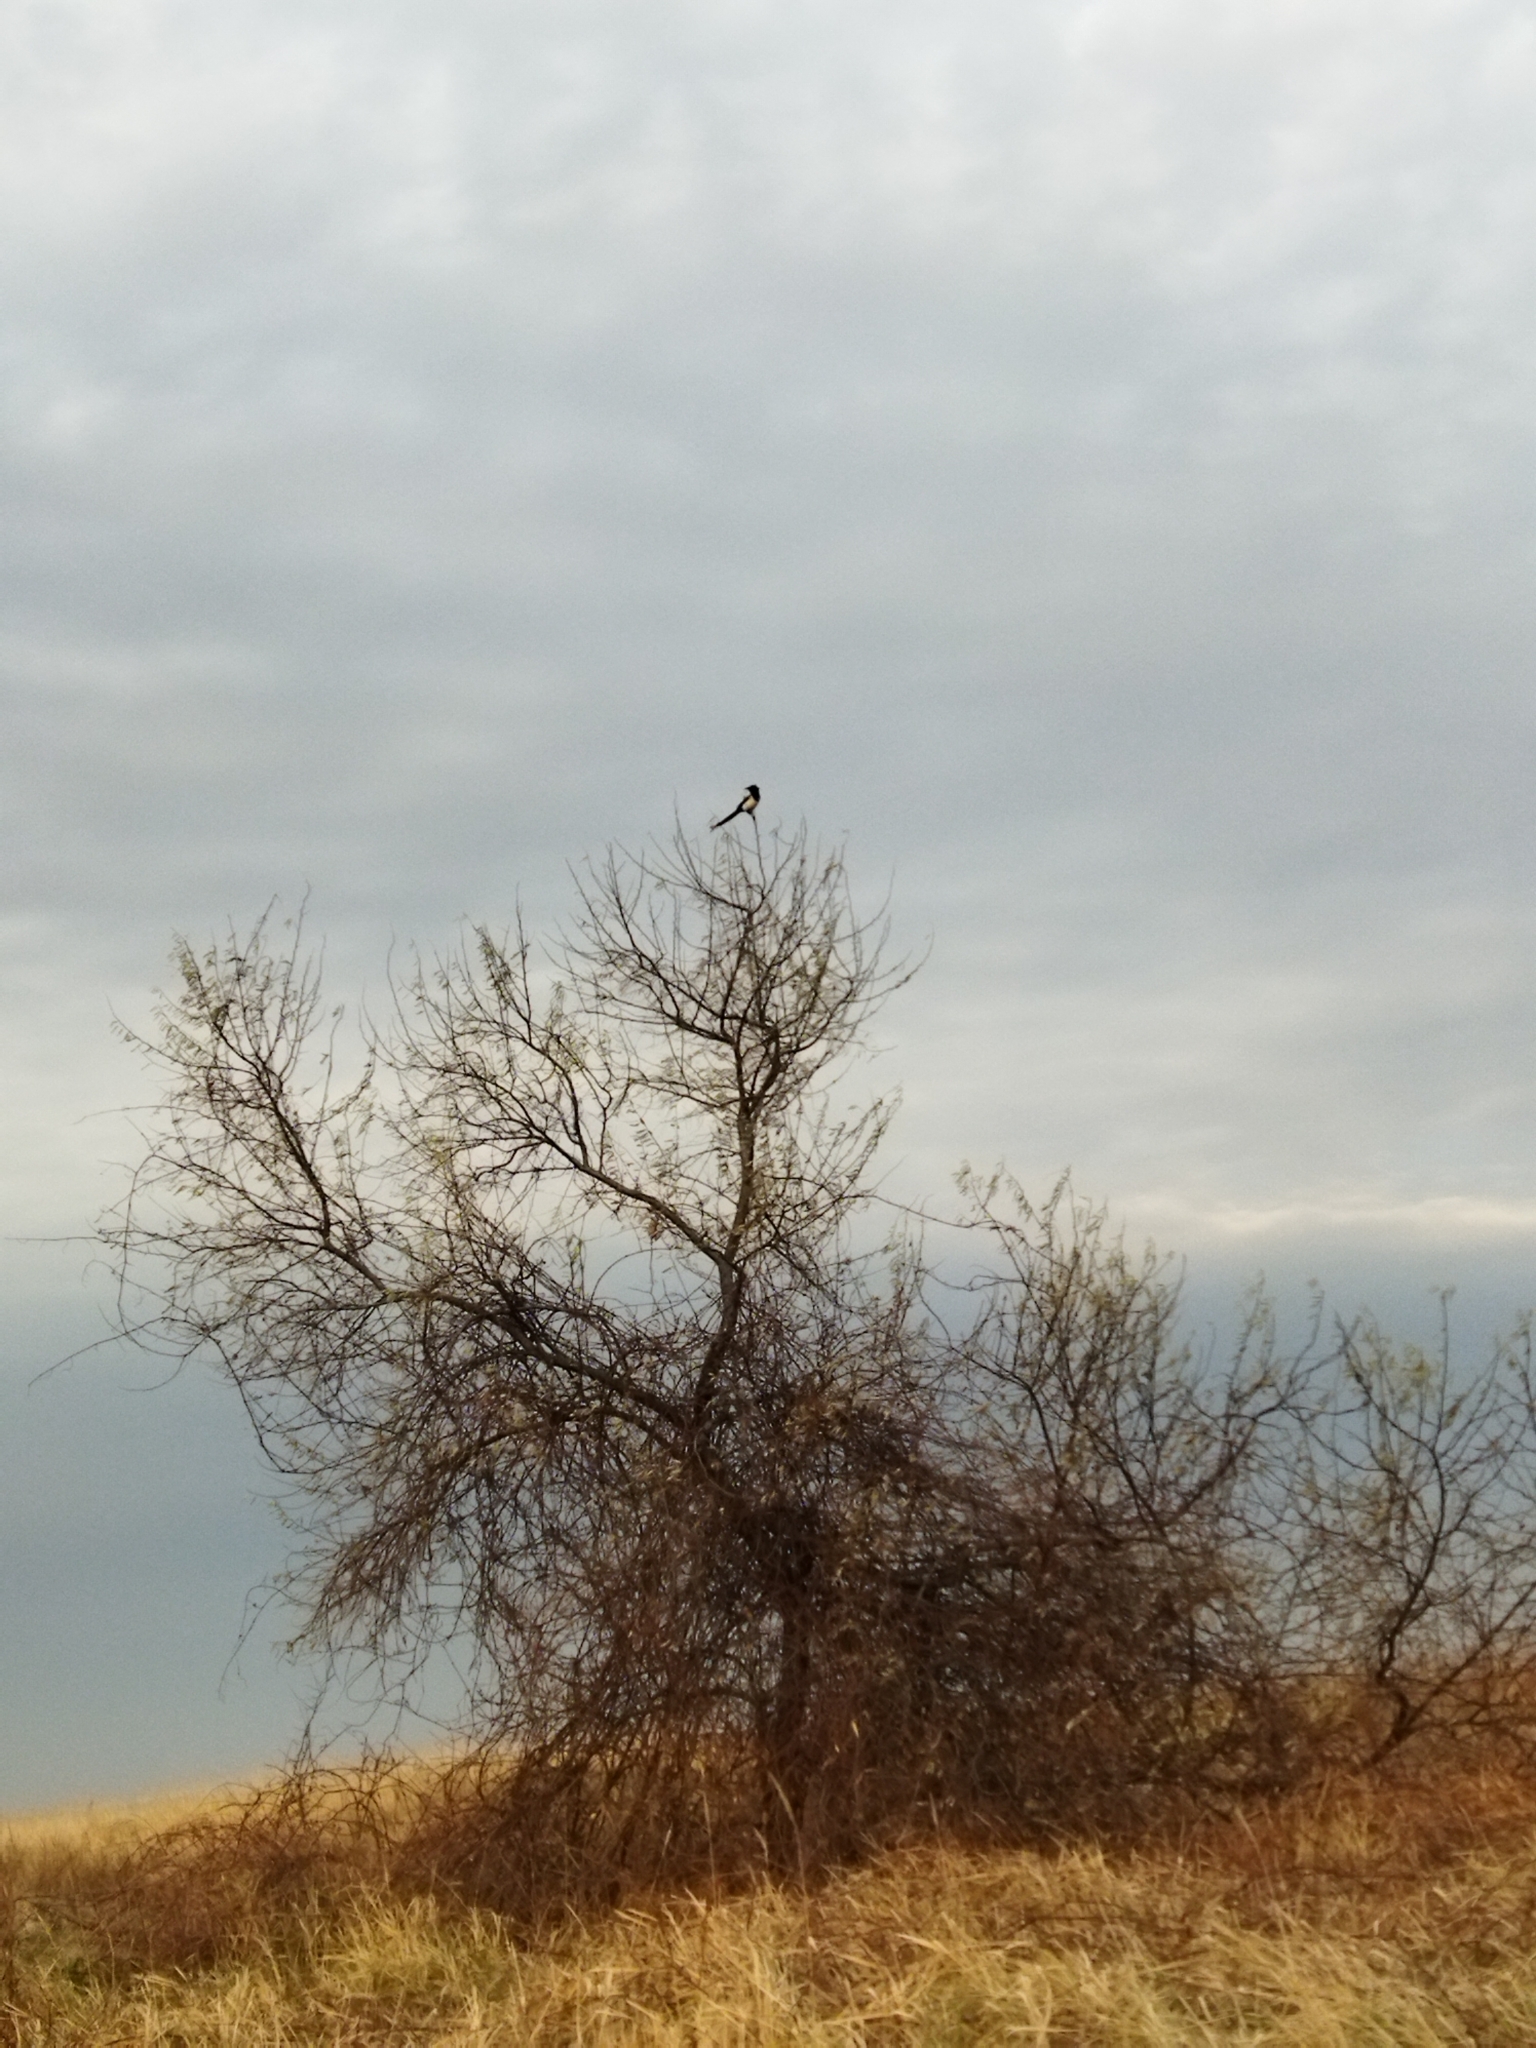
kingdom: Animalia
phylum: Chordata
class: Aves
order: Passeriformes
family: Corvidae
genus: Pica
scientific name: Pica pica
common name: Eurasian magpie
